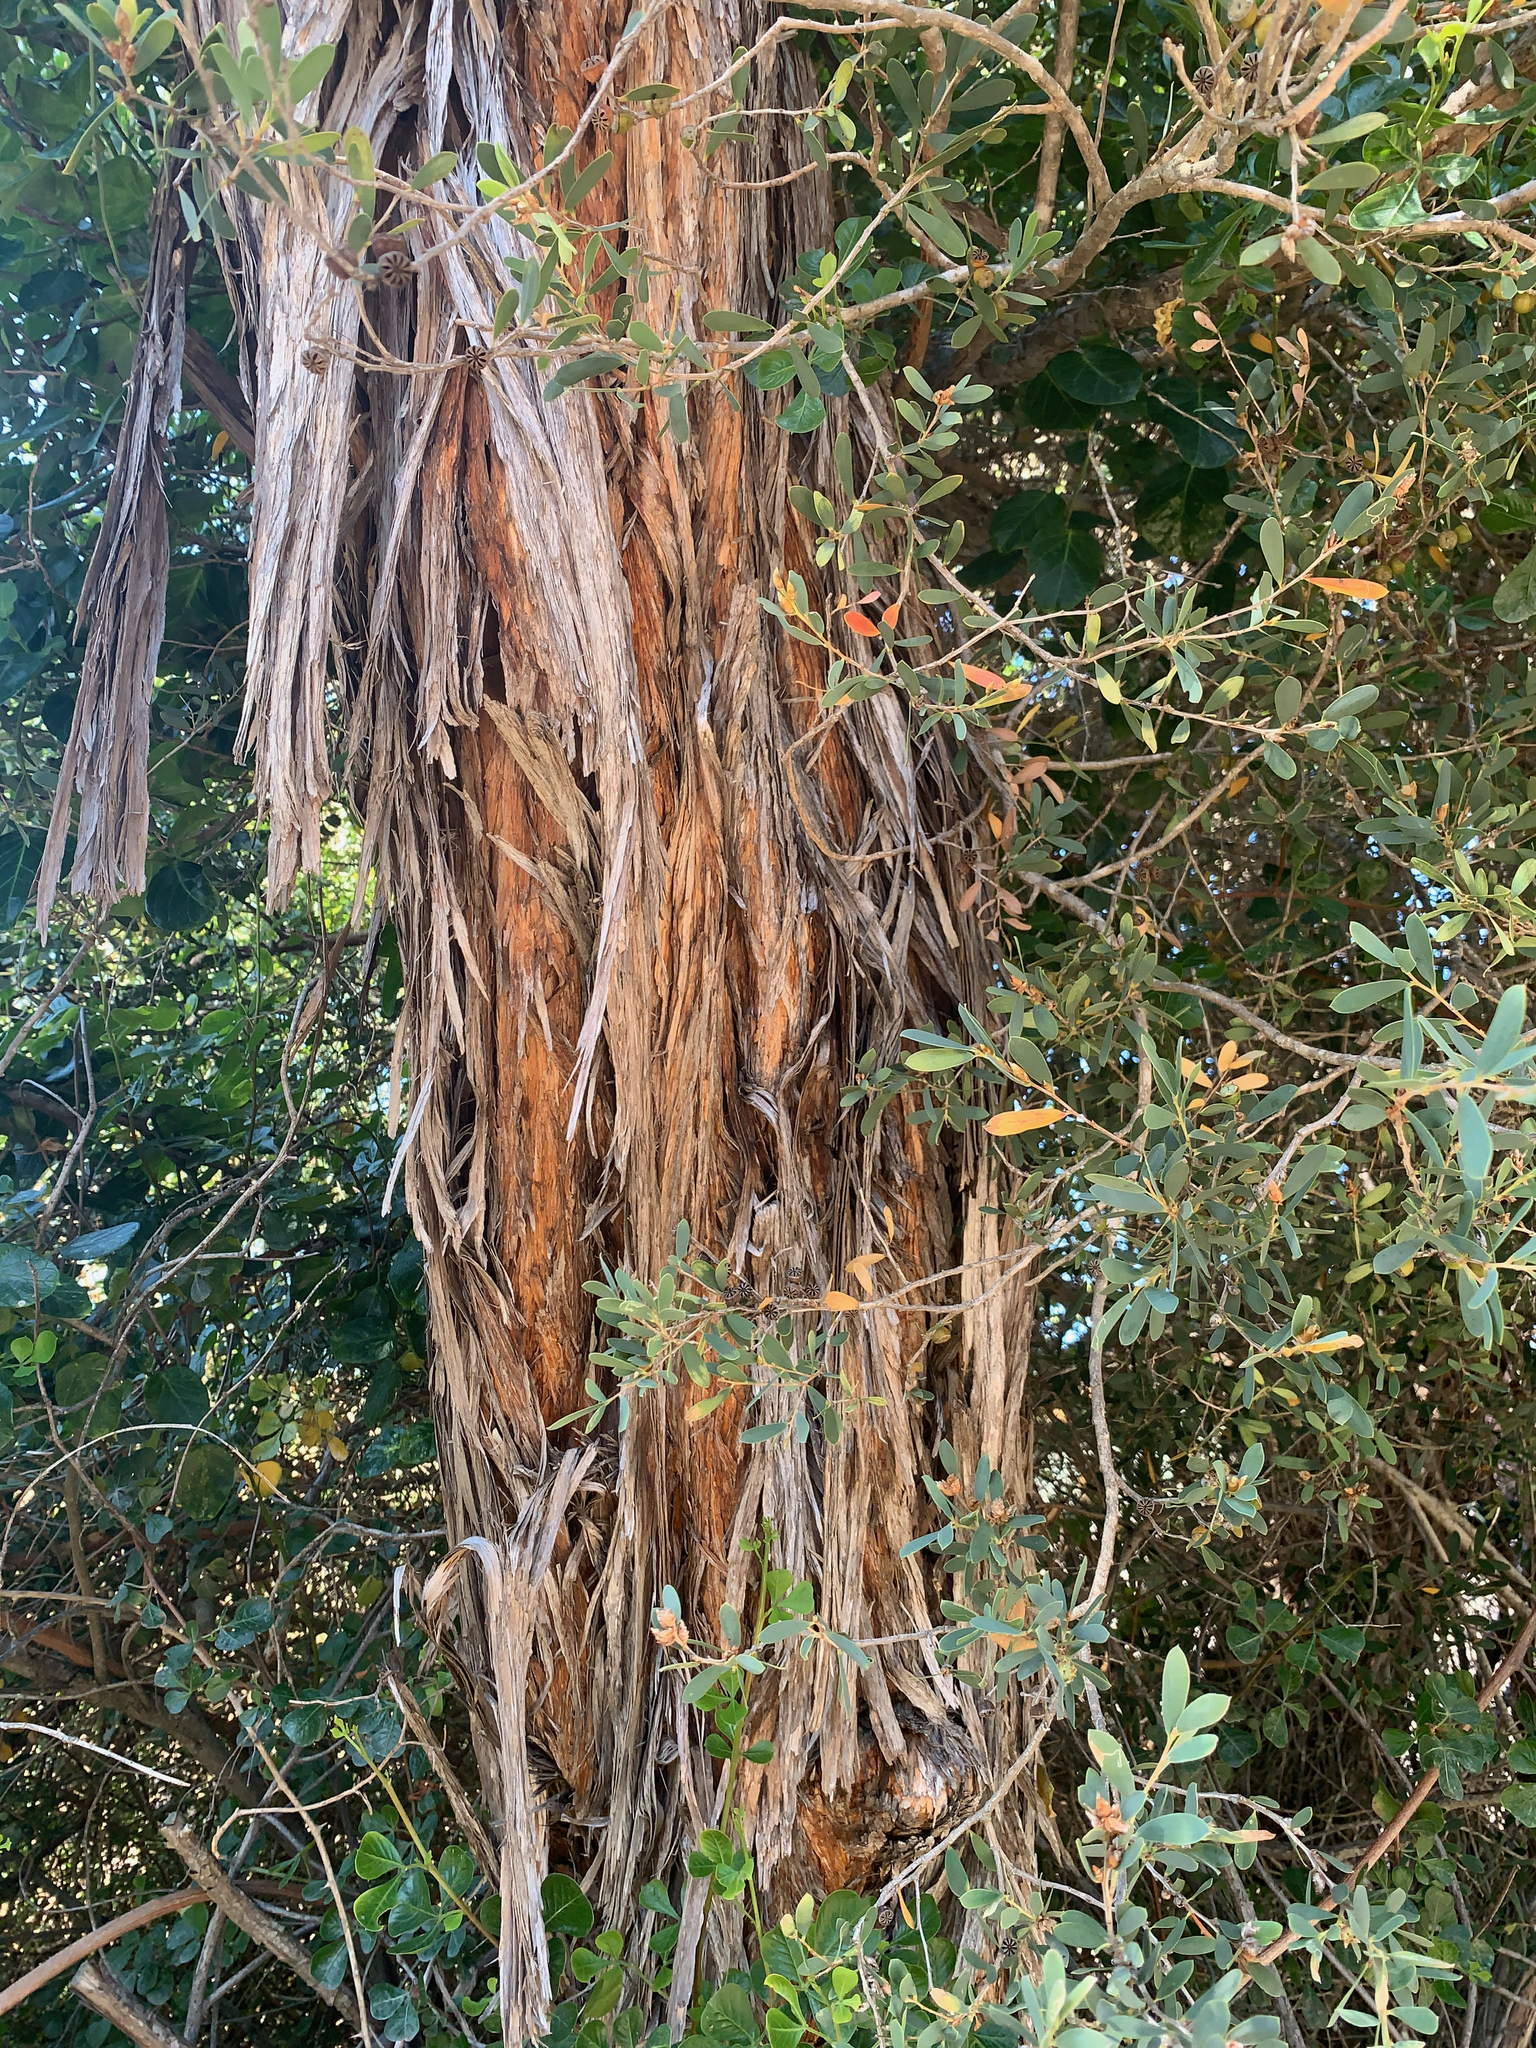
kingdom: Plantae
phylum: Tracheophyta
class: Magnoliopsida
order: Myrtales
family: Myrtaceae
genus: Leptospermum
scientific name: Leptospermum laevigatum
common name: Australian teatree
